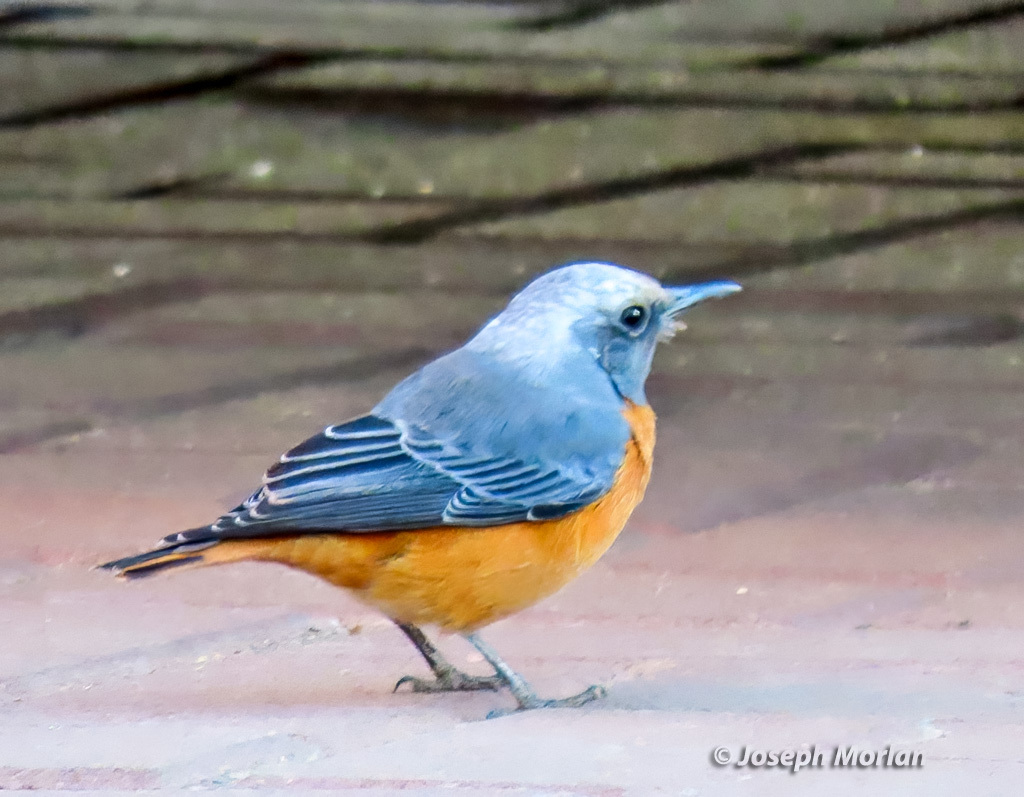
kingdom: Animalia
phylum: Chordata
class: Aves
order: Passeriformes
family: Muscicapidae
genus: Monticola
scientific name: Monticola brevipes
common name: Short-toed rock thrush
